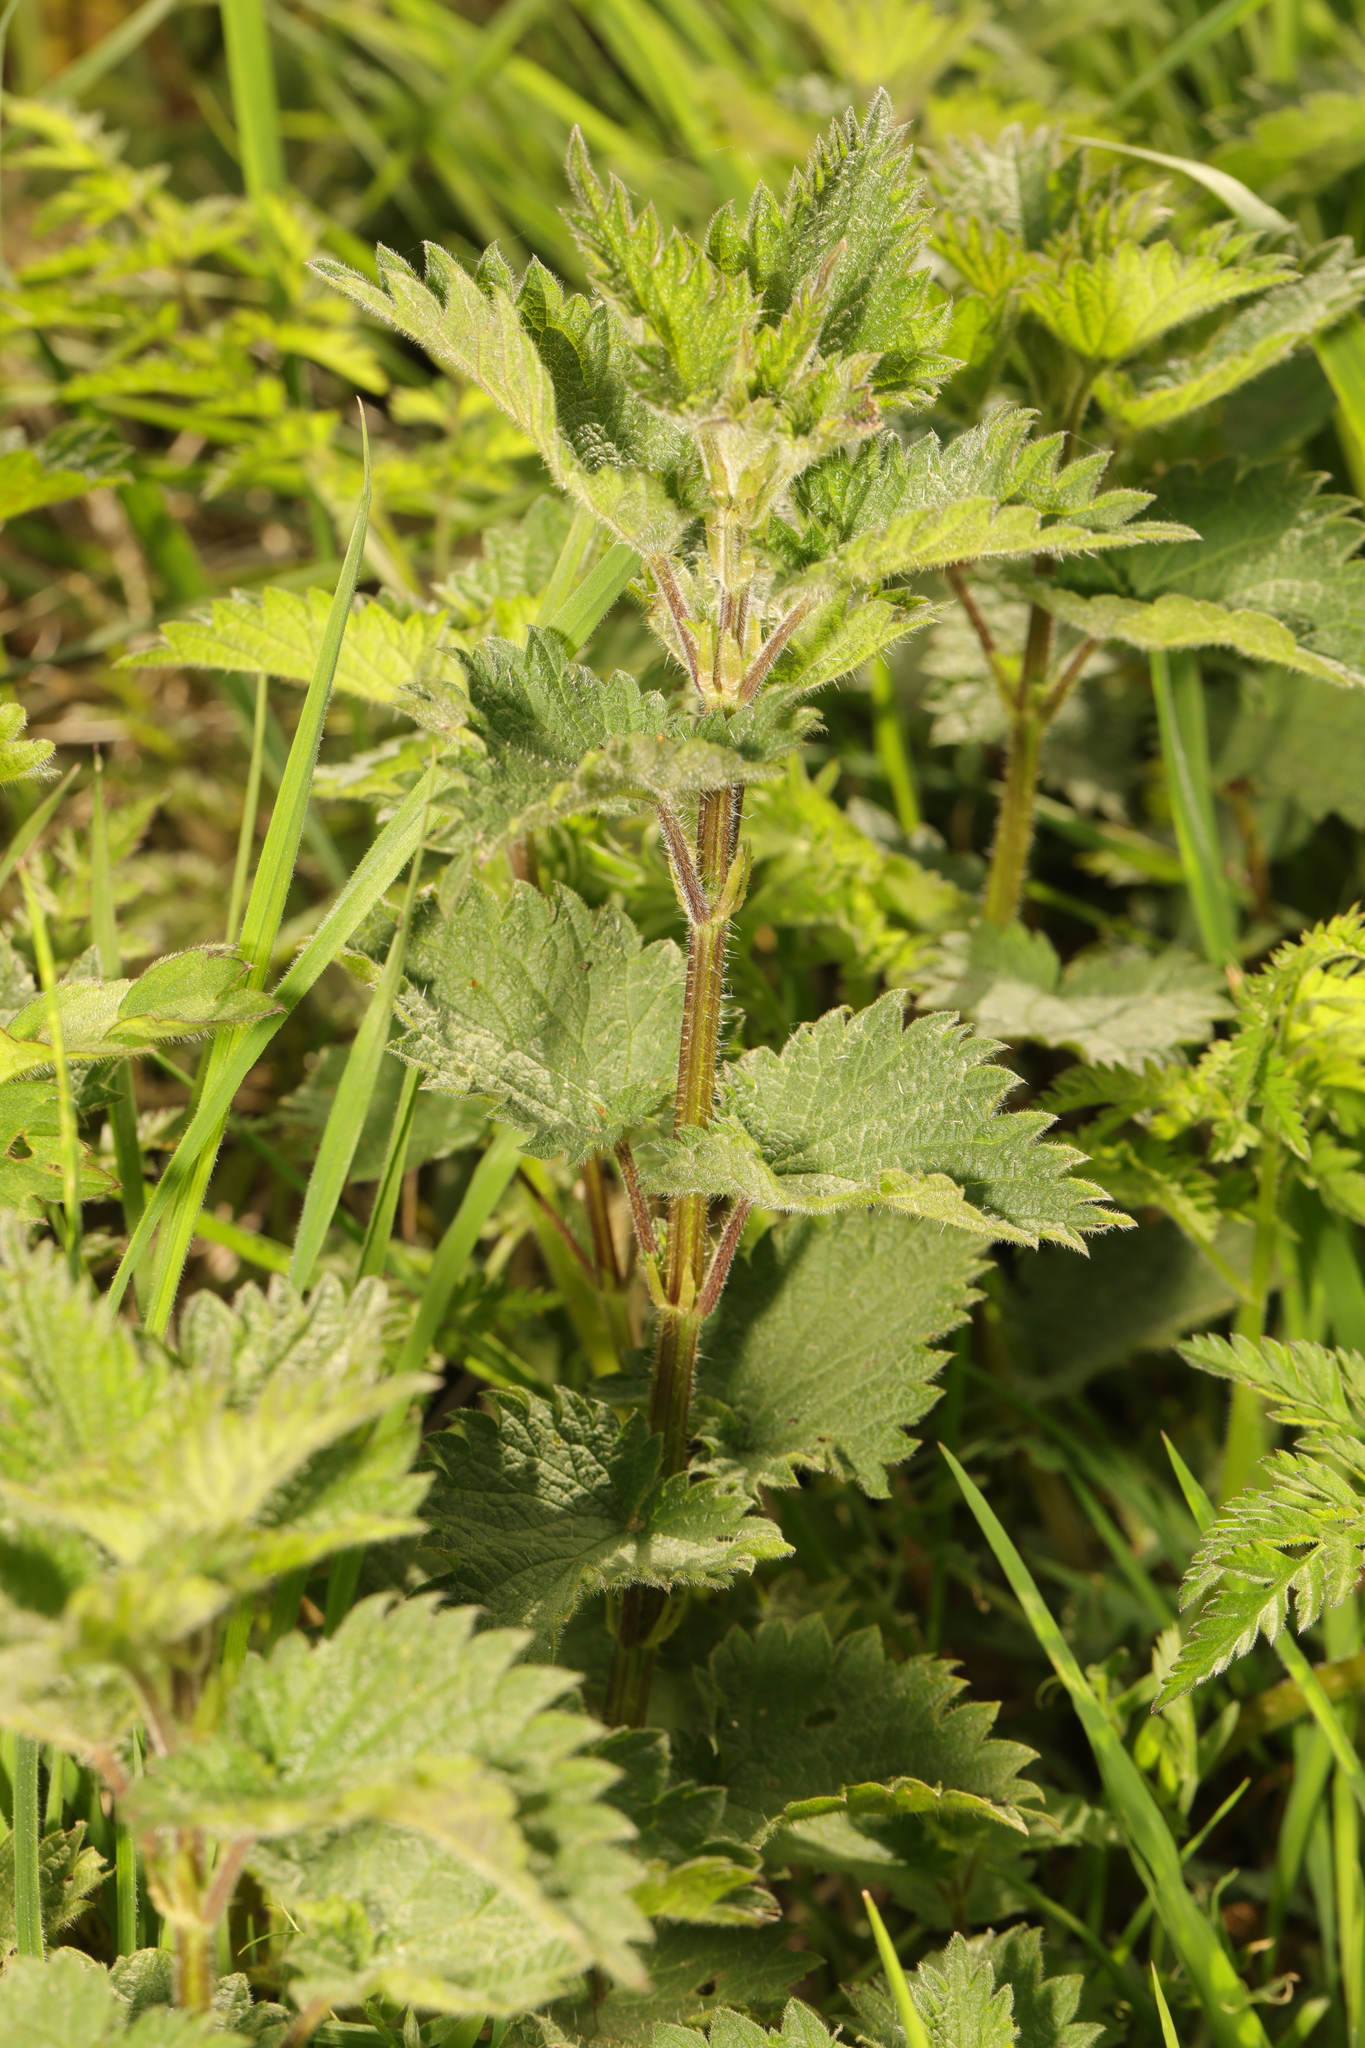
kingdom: Plantae
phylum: Tracheophyta
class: Magnoliopsida
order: Rosales
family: Urticaceae
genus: Urtica
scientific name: Urtica dioica
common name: Common nettle
